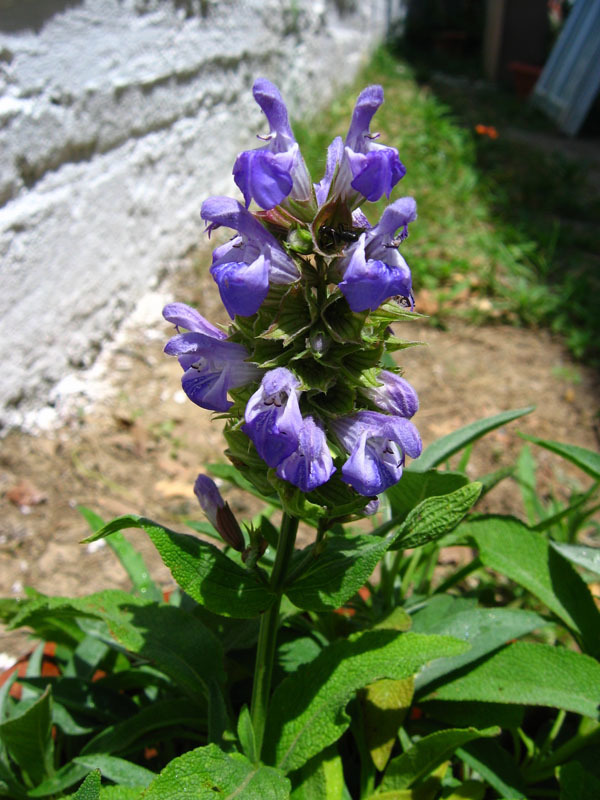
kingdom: Plantae
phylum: Tracheophyta
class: Magnoliopsida
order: Lamiales
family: Lamiaceae
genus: Salvia
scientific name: Salvia officinalis
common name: Sage
